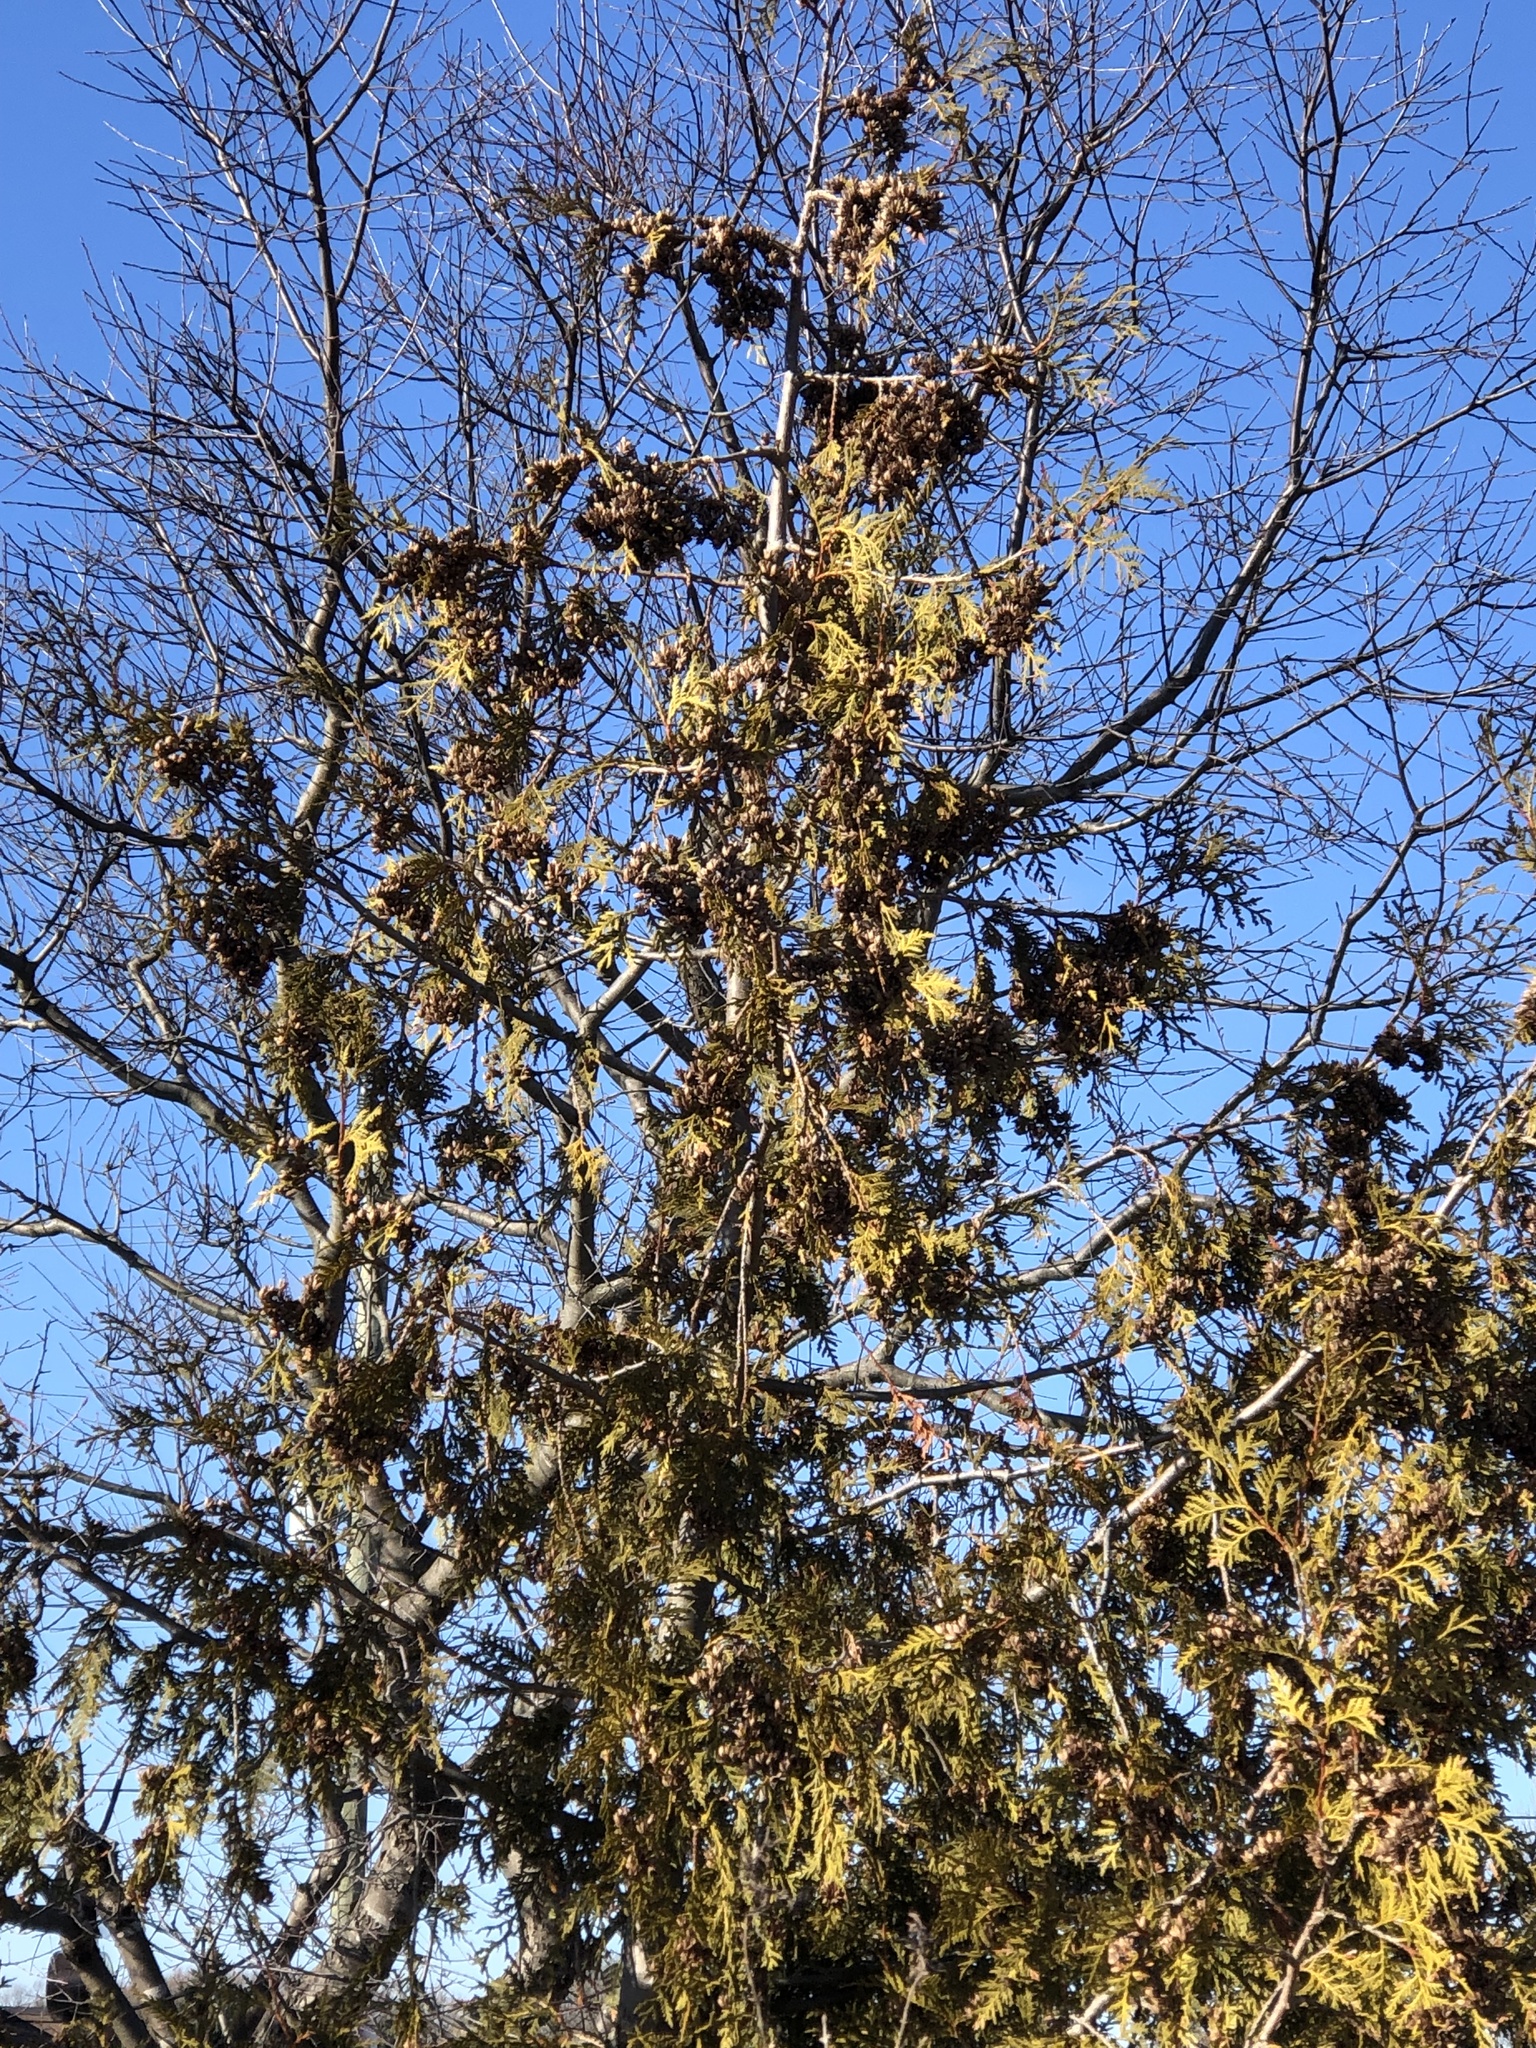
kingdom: Plantae
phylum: Tracheophyta
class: Pinopsida
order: Pinales
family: Cupressaceae
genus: Thuja
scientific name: Thuja occidentalis
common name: Northern white-cedar
